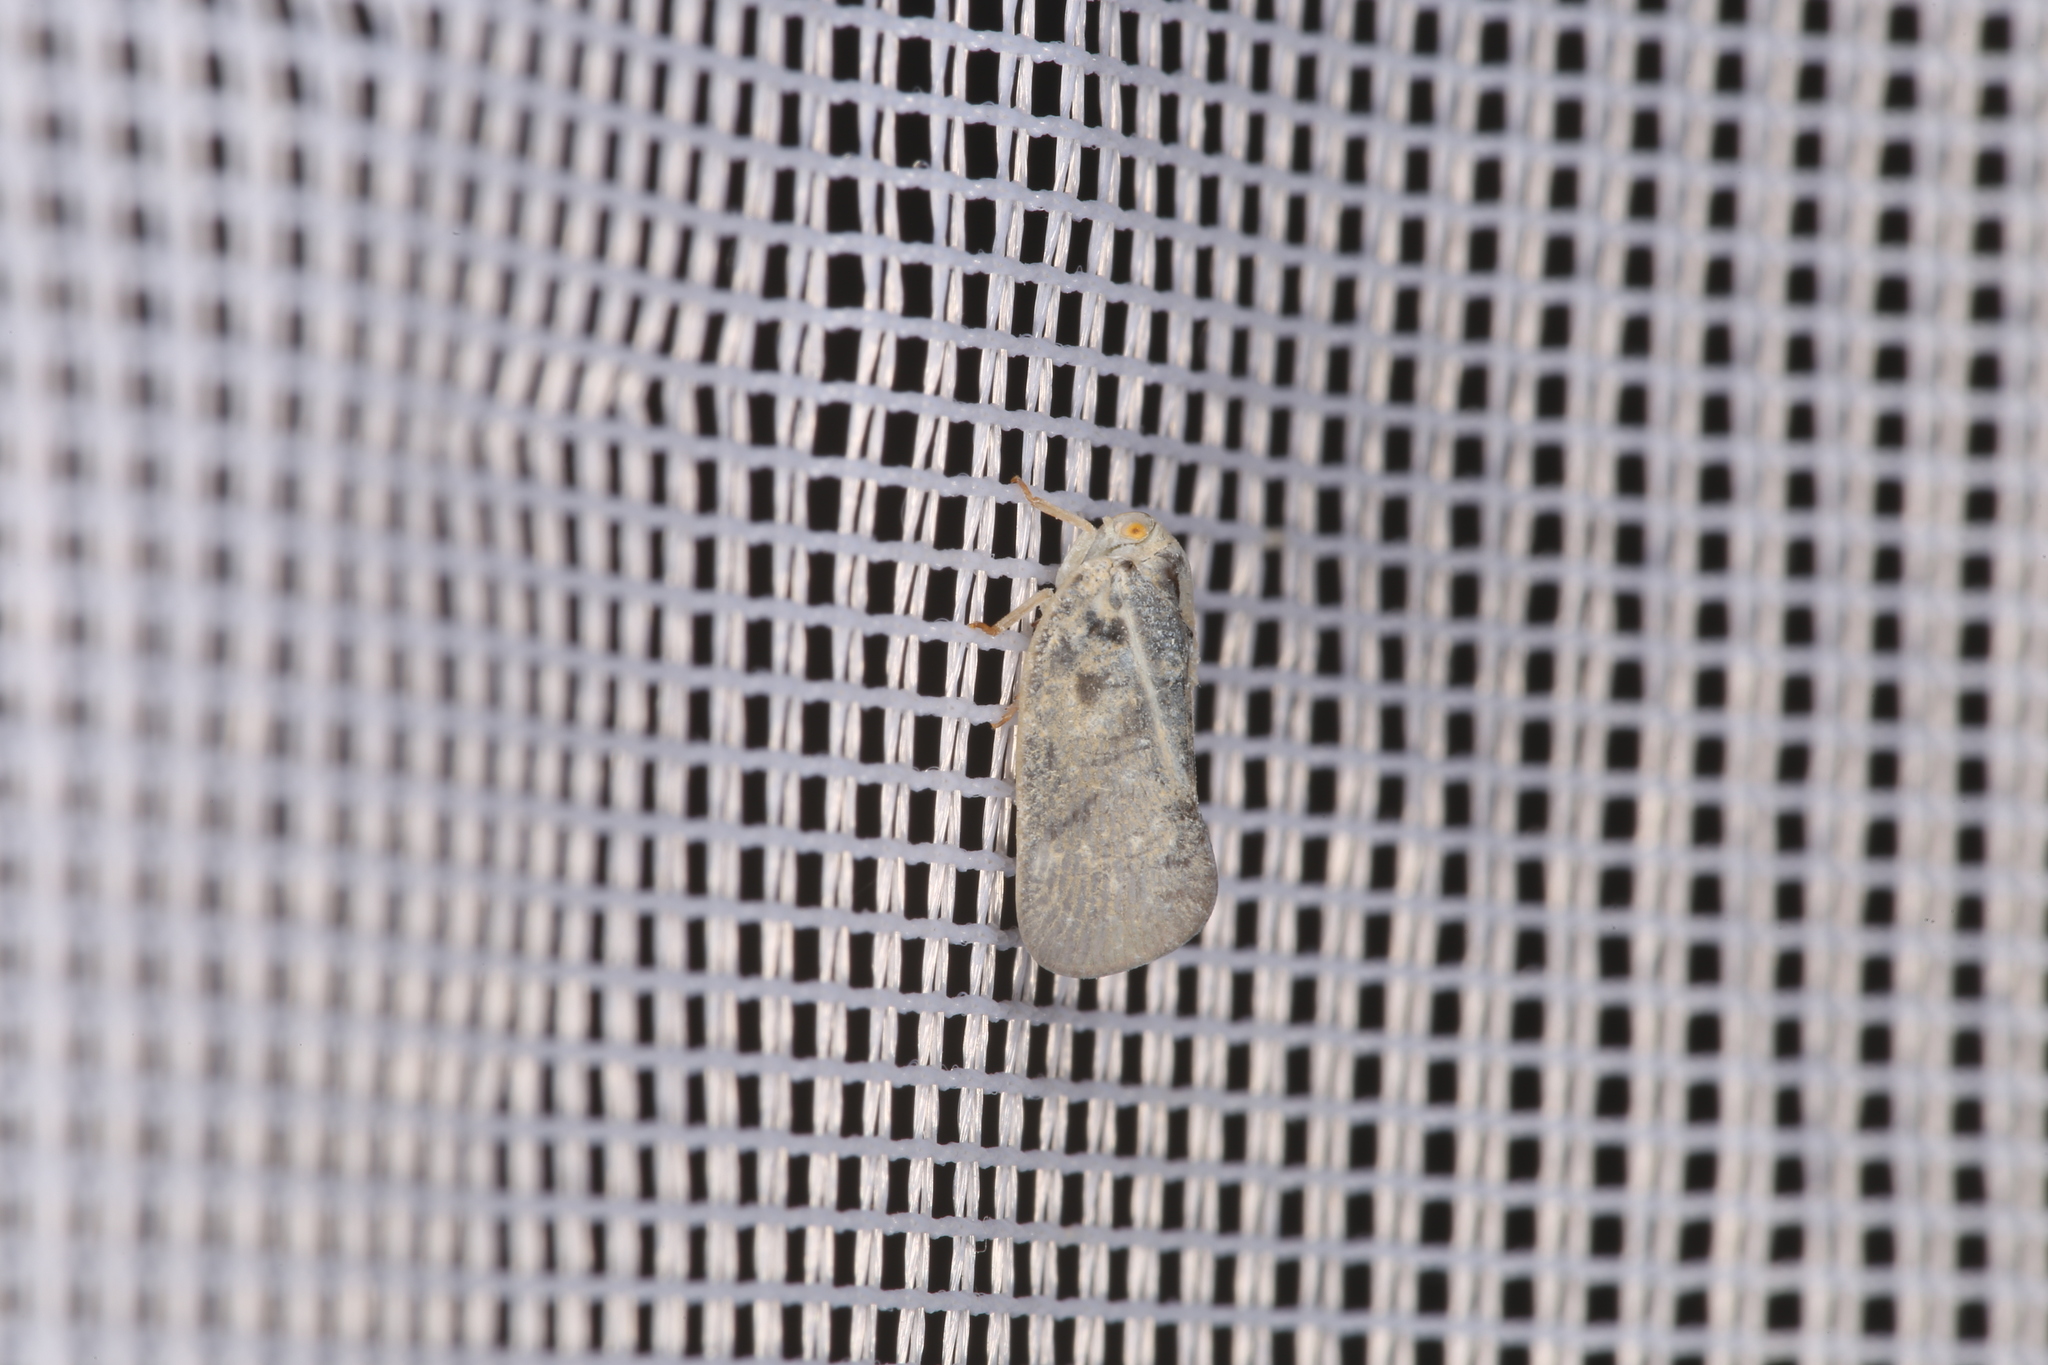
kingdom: Animalia
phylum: Arthropoda
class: Insecta
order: Hemiptera
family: Flatidae
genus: Metcalfa
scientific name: Metcalfa pruinosa
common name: Citrus flatid planthopper
